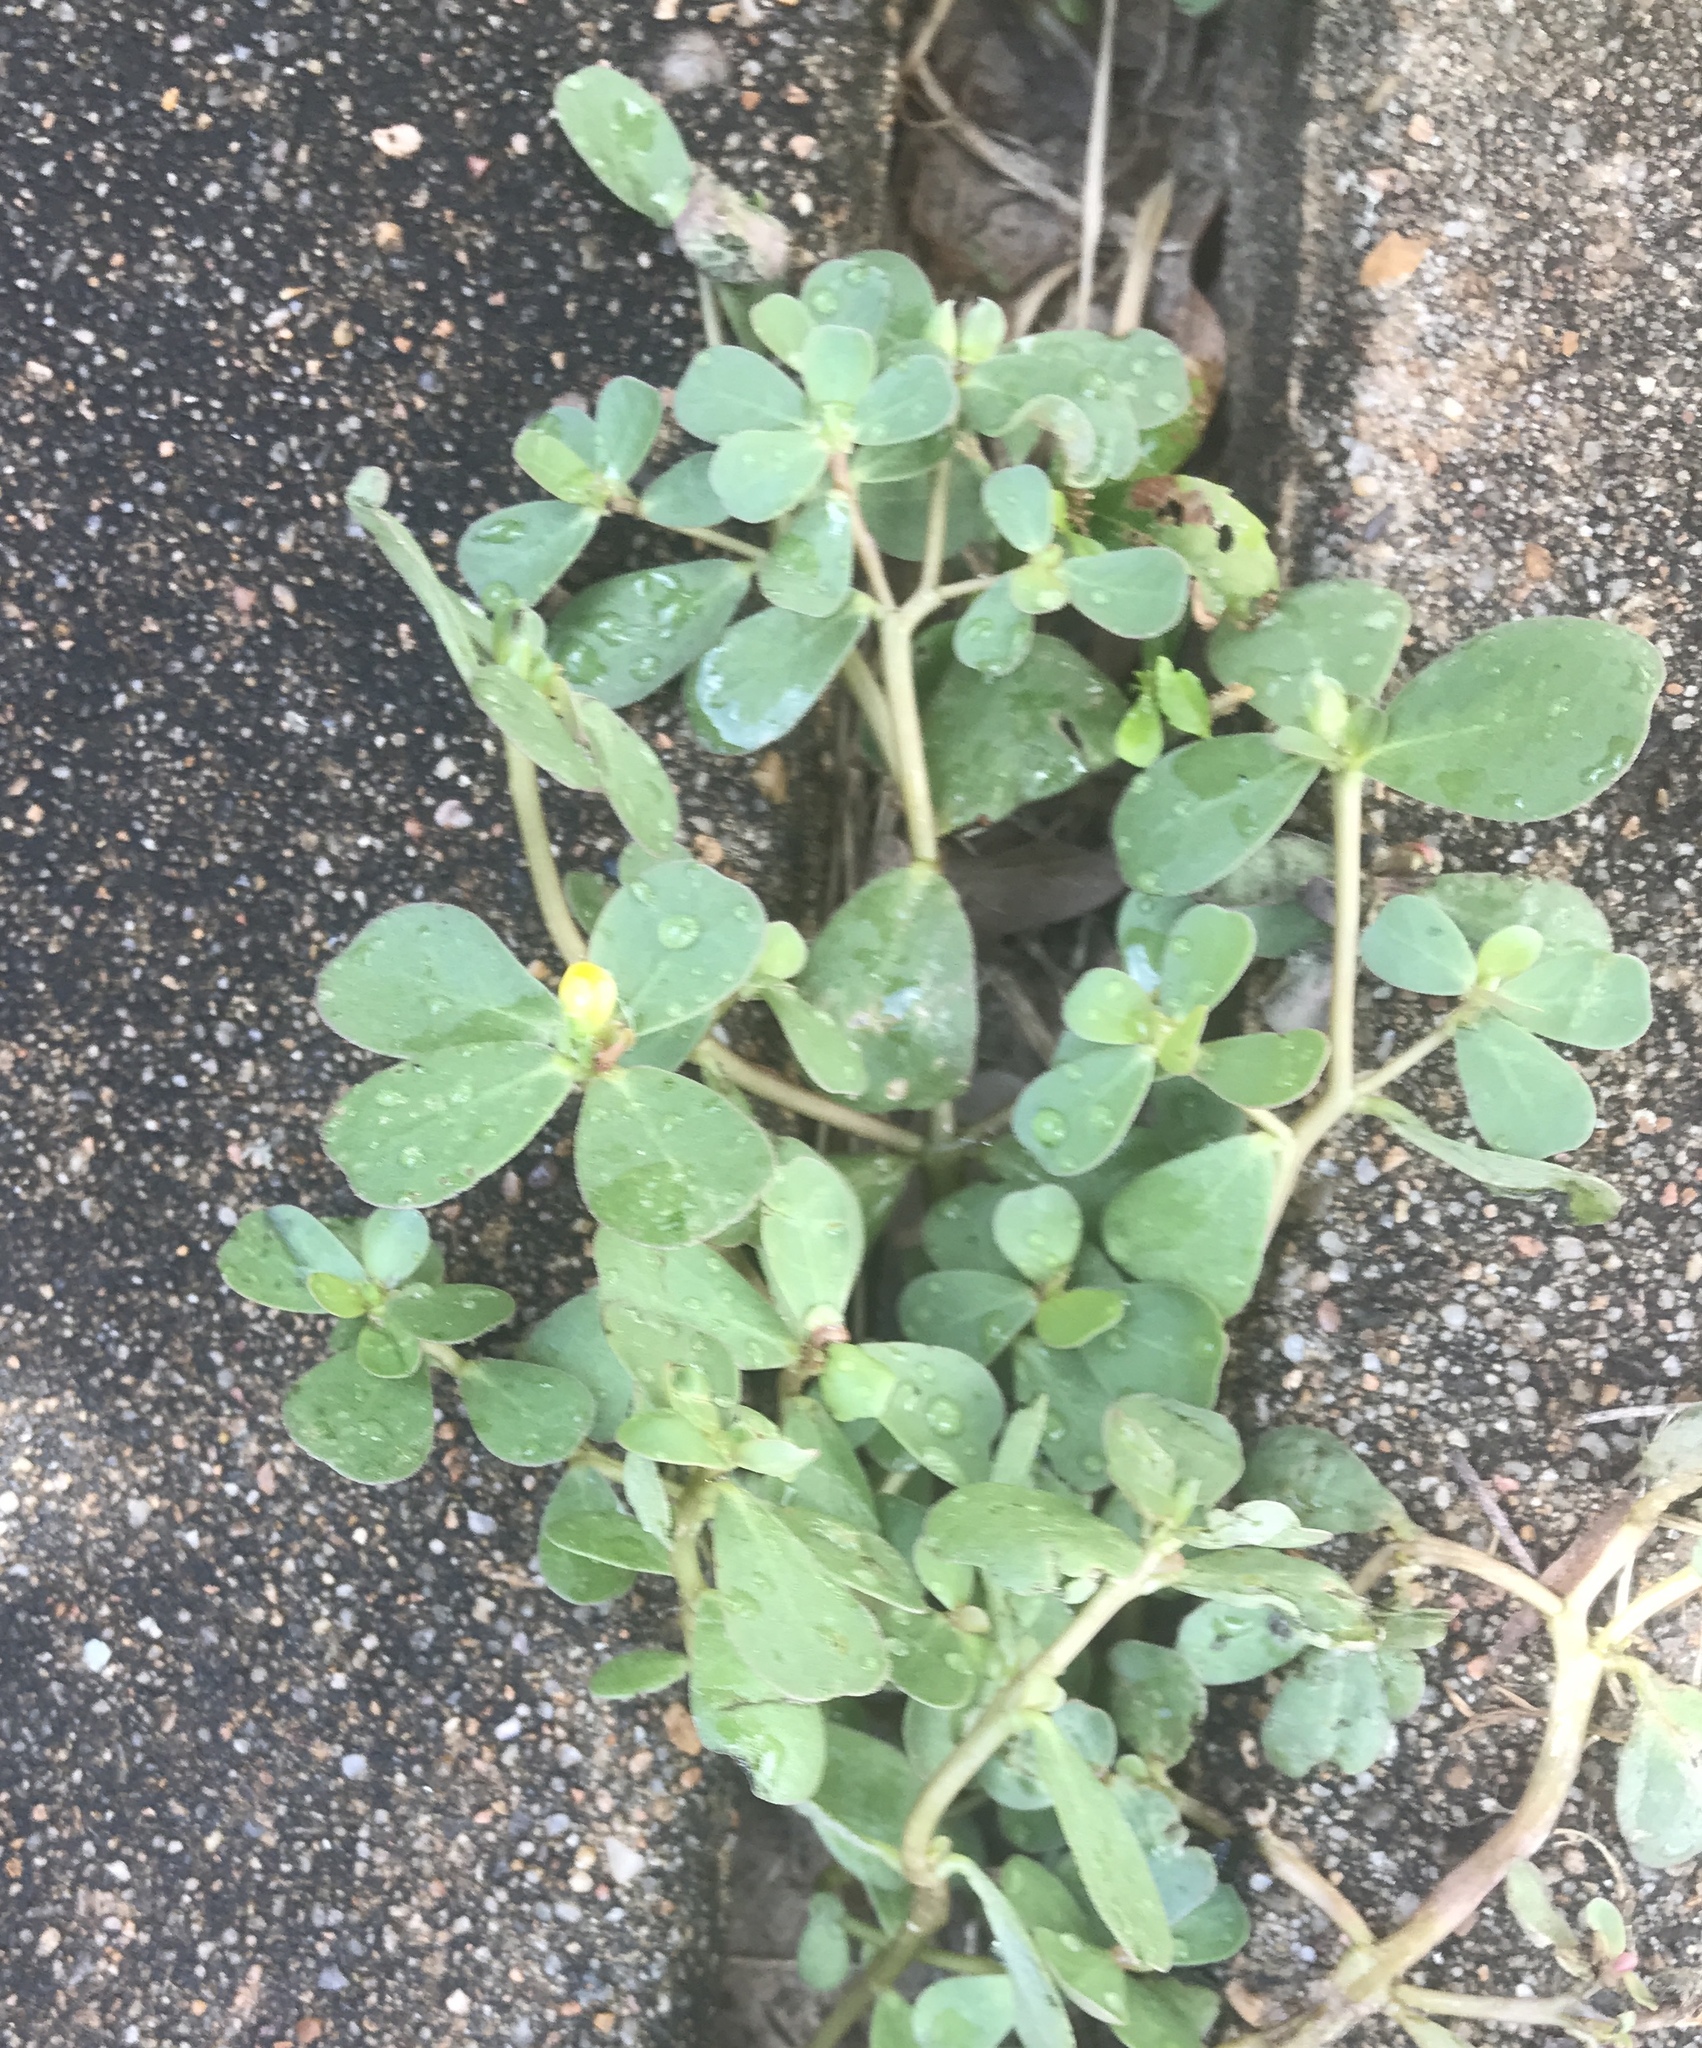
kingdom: Plantae
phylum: Tracheophyta
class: Magnoliopsida
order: Caryophyllales
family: Portulacaceae
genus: Portulaca
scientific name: Portulaca oleracea
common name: Common purslane
